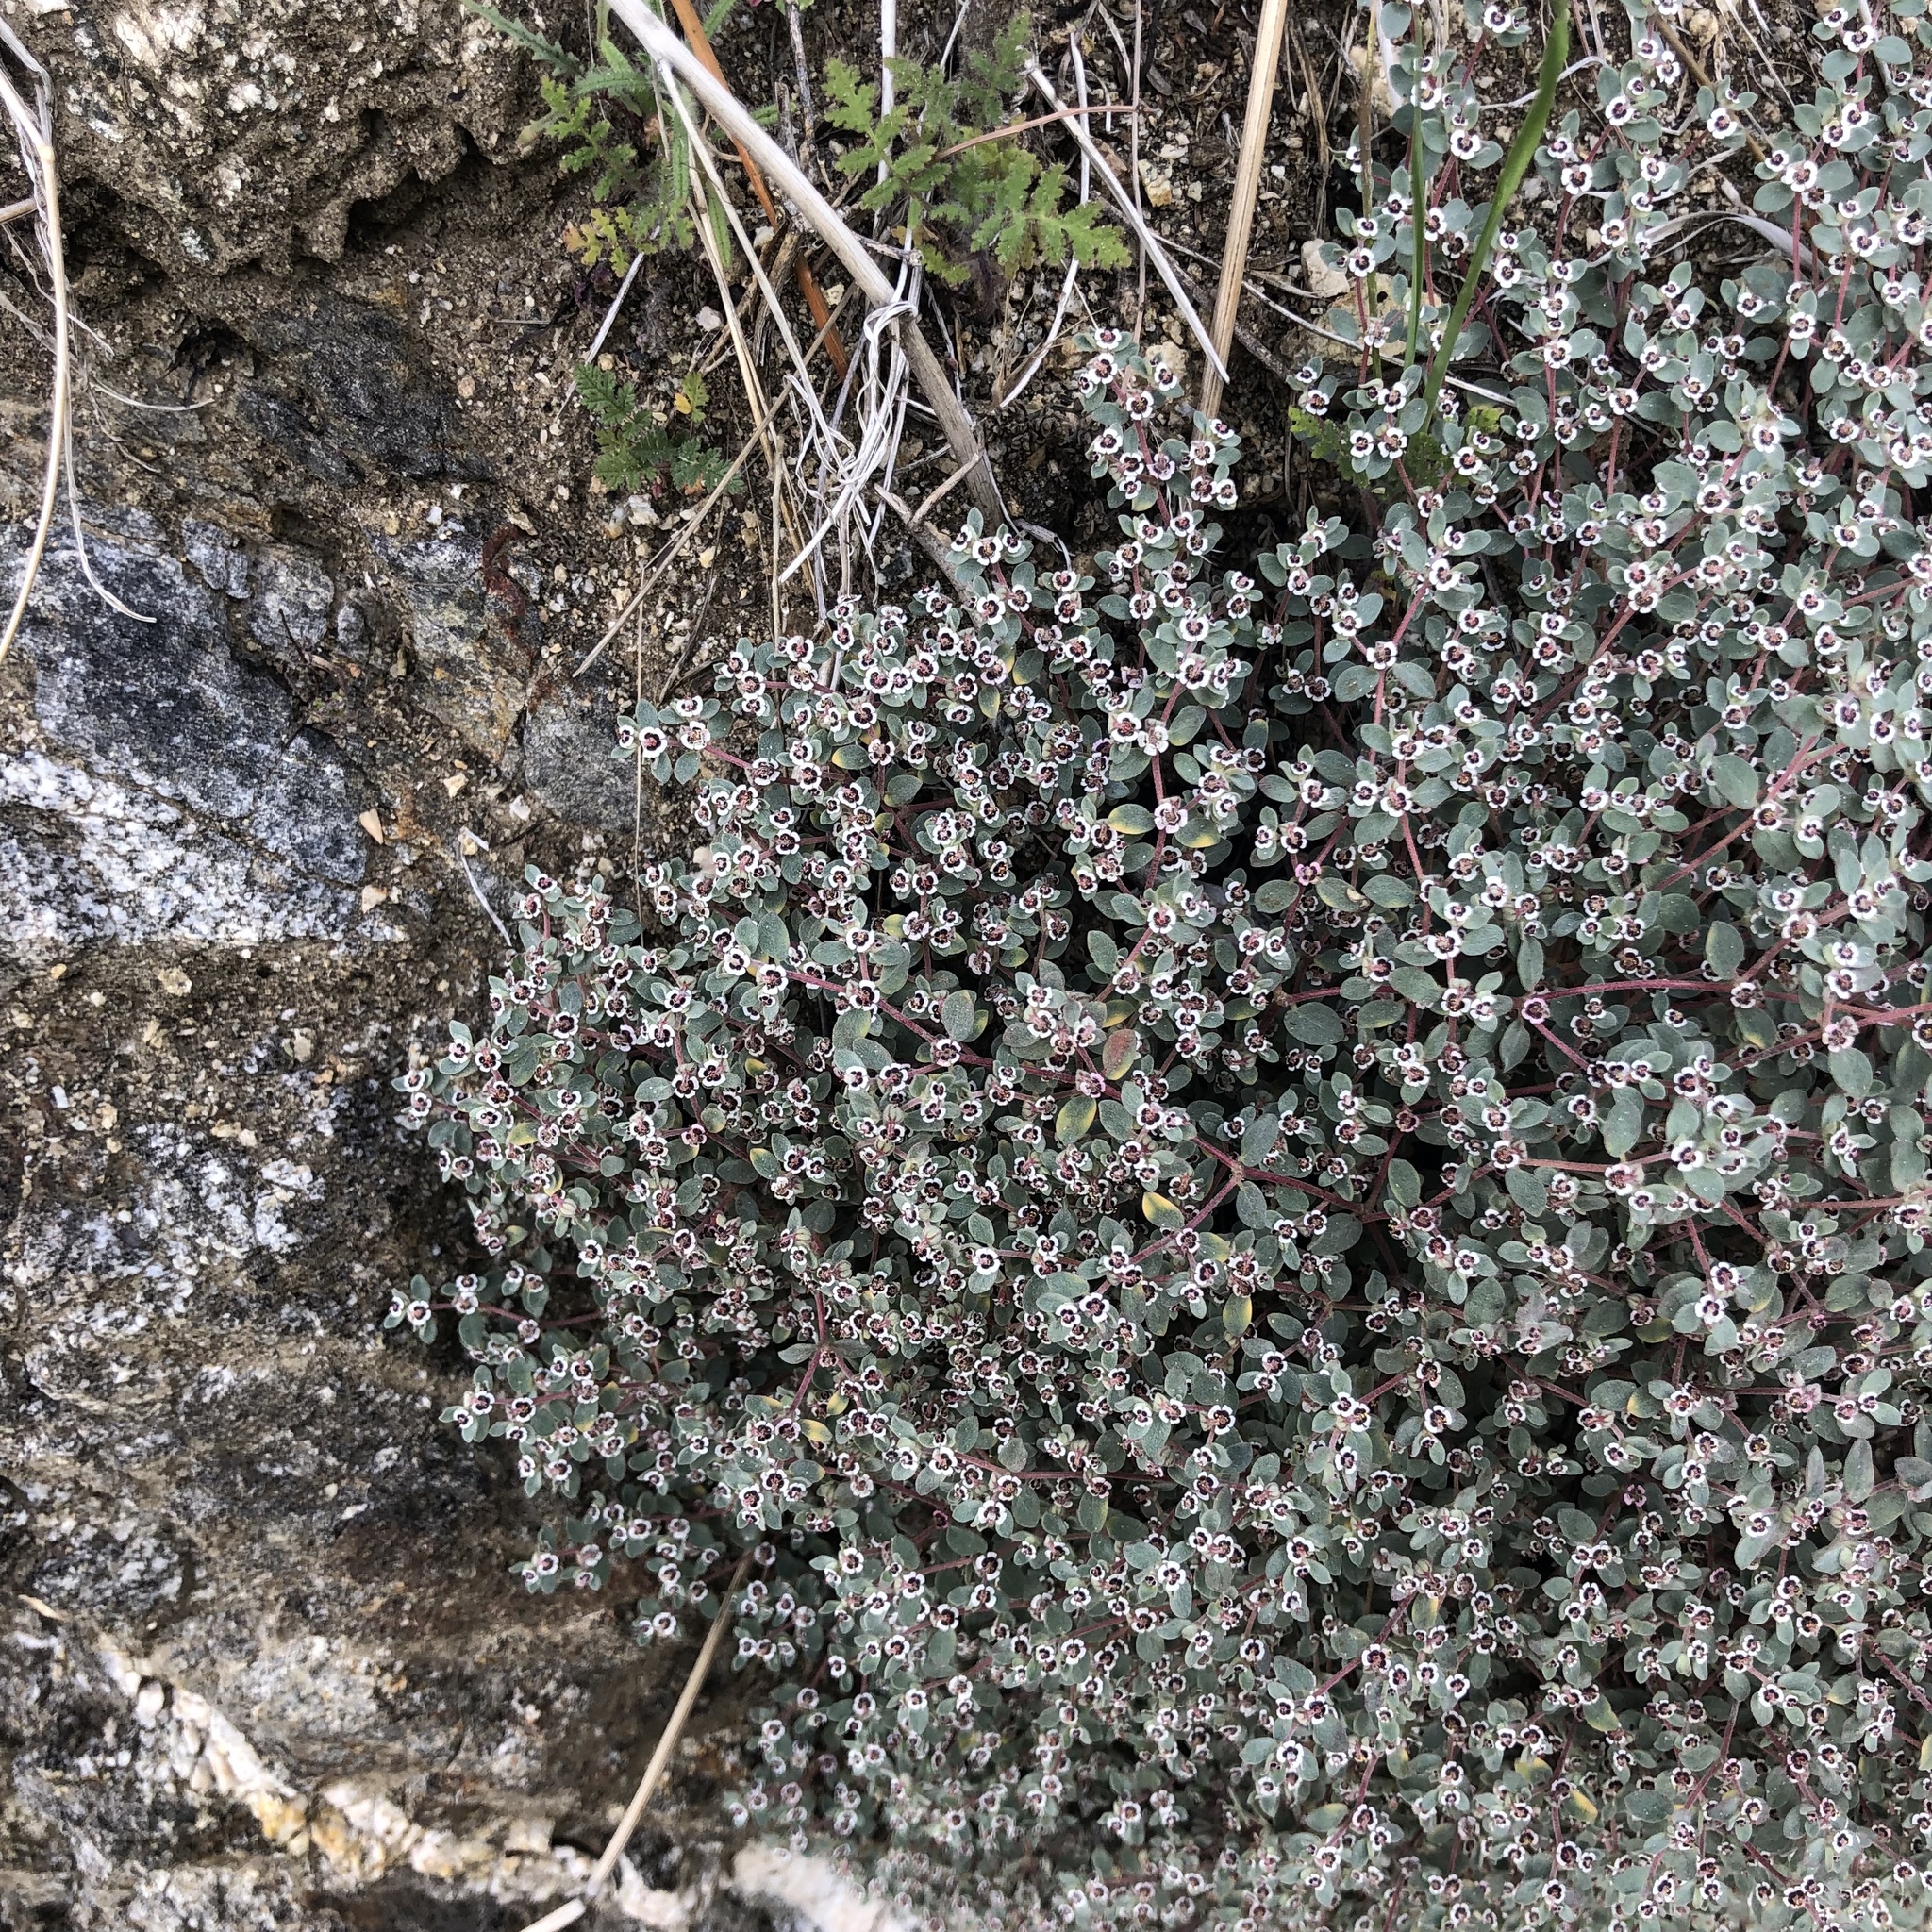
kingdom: Plantae
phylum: Tracheophyta
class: Magnoliopsida
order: Malpighiales
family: Euphorbiaceae
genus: Euphorbia
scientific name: Euphorbia melanadenia
